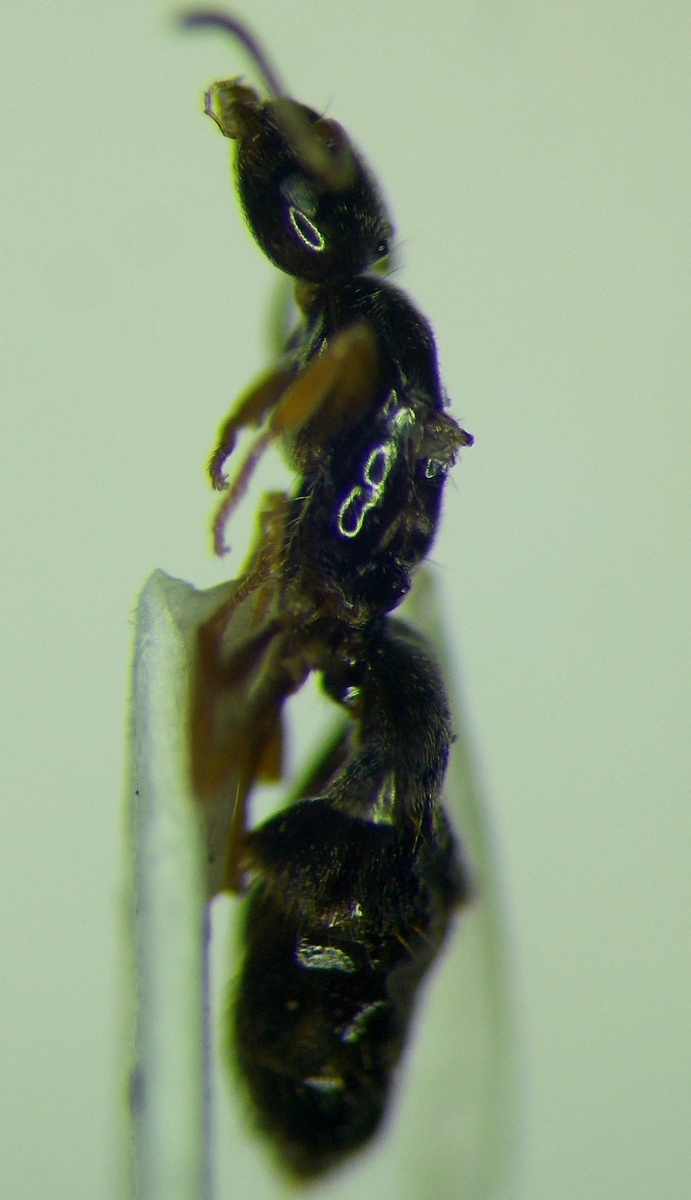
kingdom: Animalia
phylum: Arthropoda
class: Insecta
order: Hymenoptera
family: Formicidae
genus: Plagiolepis
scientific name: Plagiolepis pallescens
